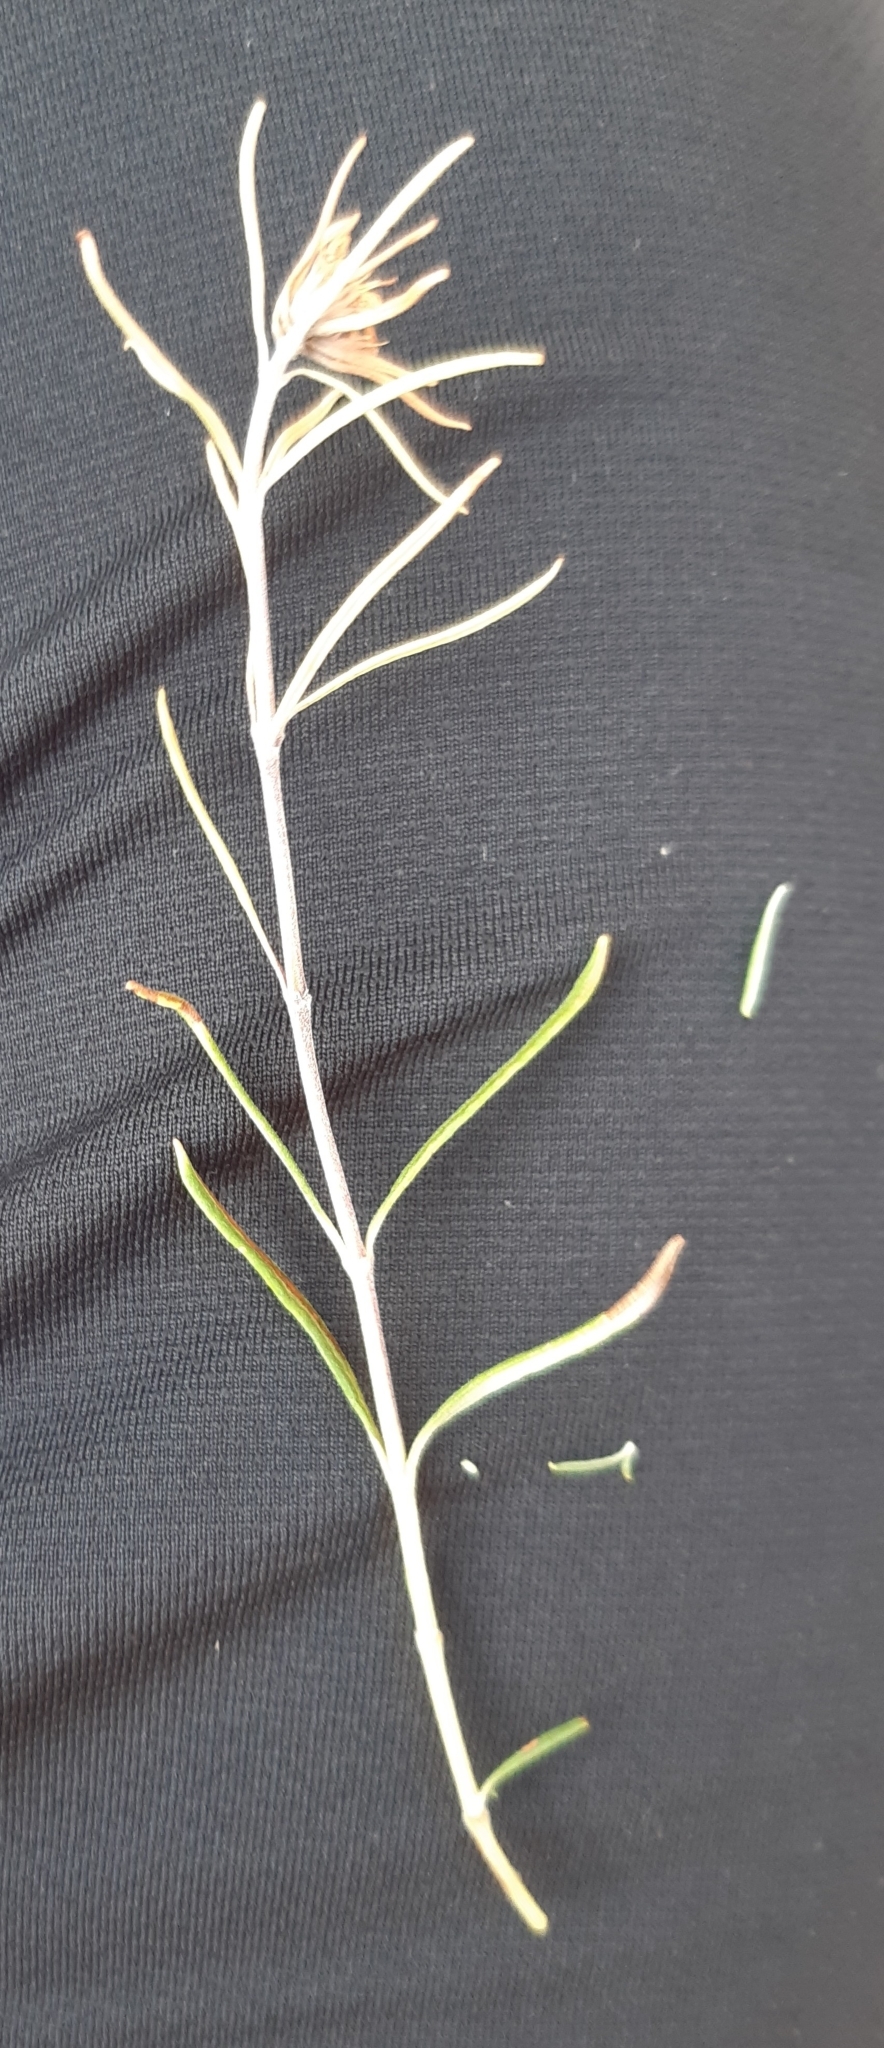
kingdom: Plantae
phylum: Tracheophyta
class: Magnoliopsida
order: Lamiales
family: Lamiaceae
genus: Teucrium
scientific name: Teucrium montanum
